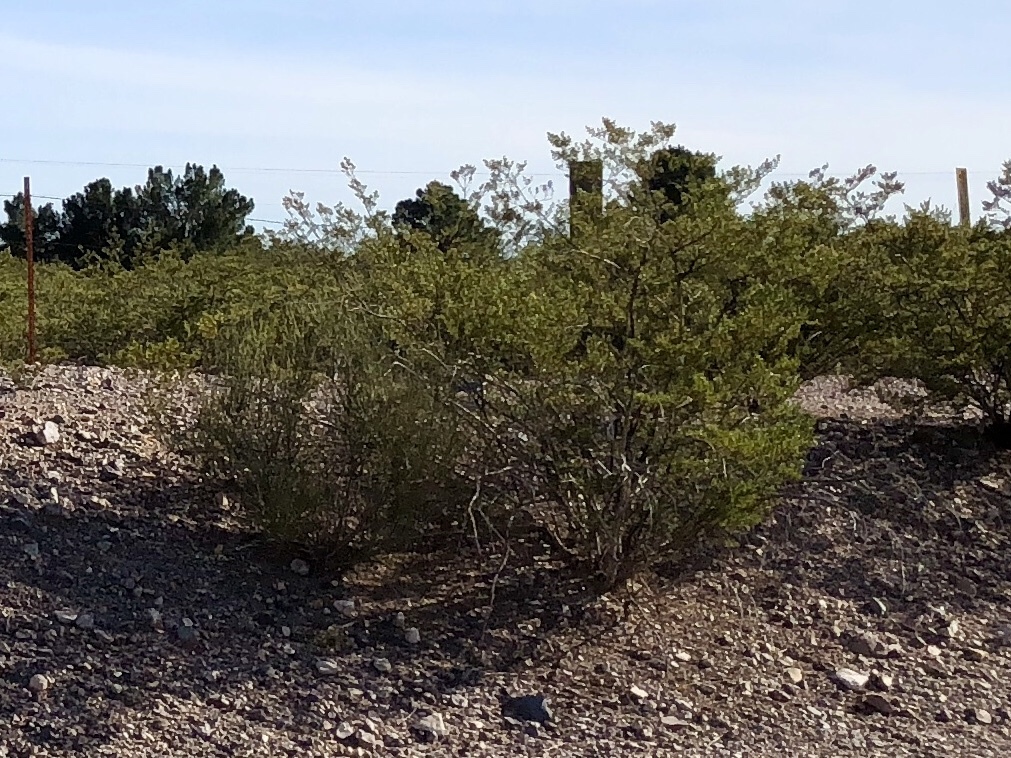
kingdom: Plantae
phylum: Tracheophyta
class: Magnoliopsida
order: Zygophyllales
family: Zygophyllaceae
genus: Larrea
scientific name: Larrea tridentata
